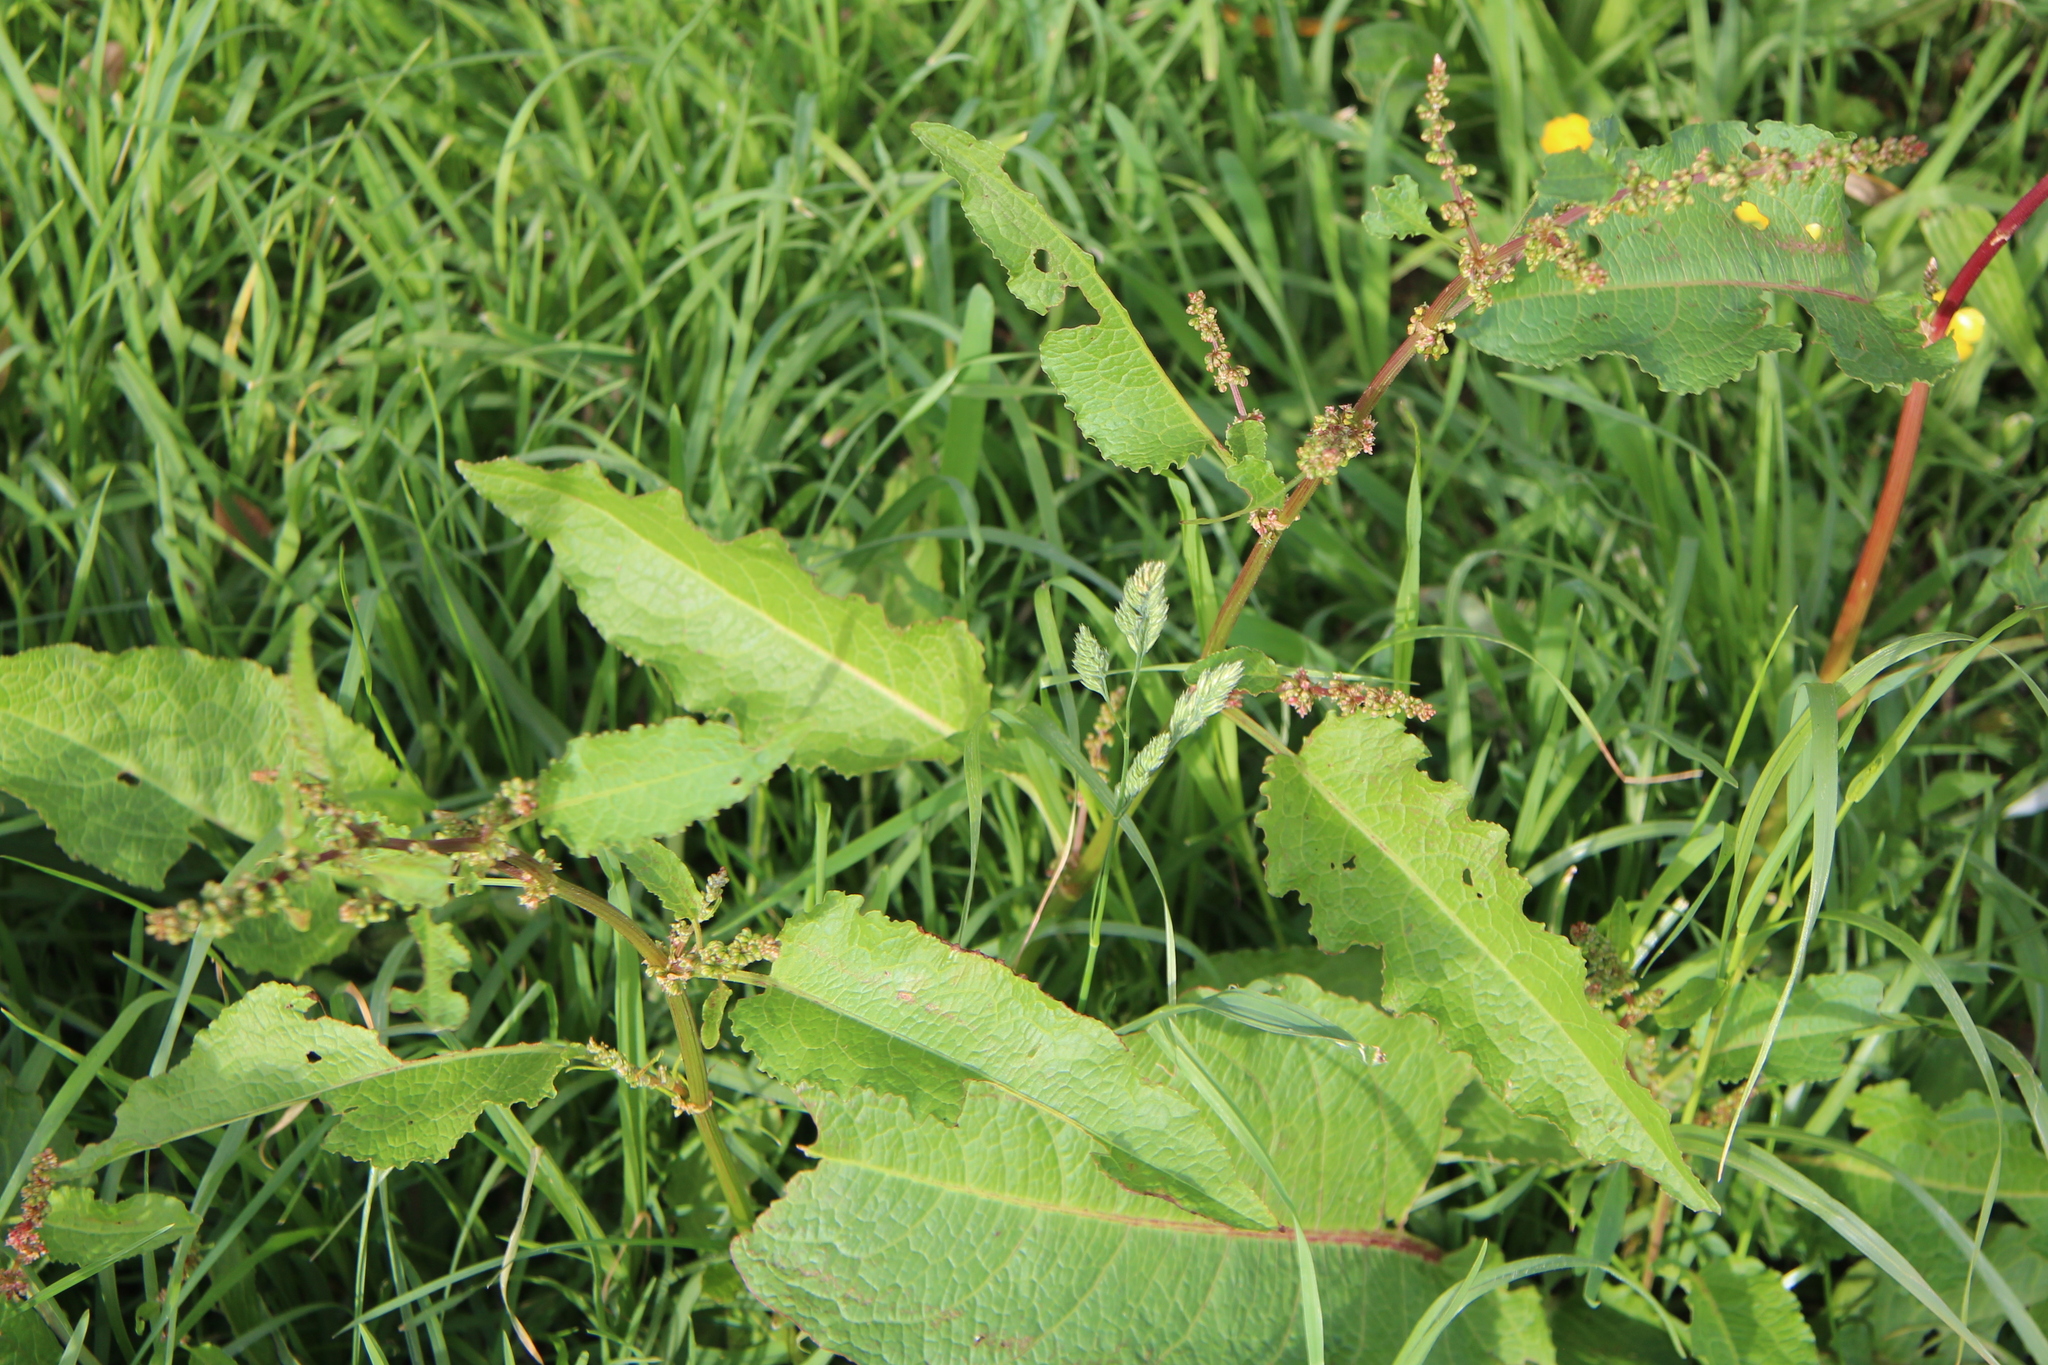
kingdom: Plantae
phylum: Tracheophyta
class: Magnoliopsida
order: Caryophyllales
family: Polygonaceae
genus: Rumex
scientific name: Rumex obtusifolius
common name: Bitter dock
